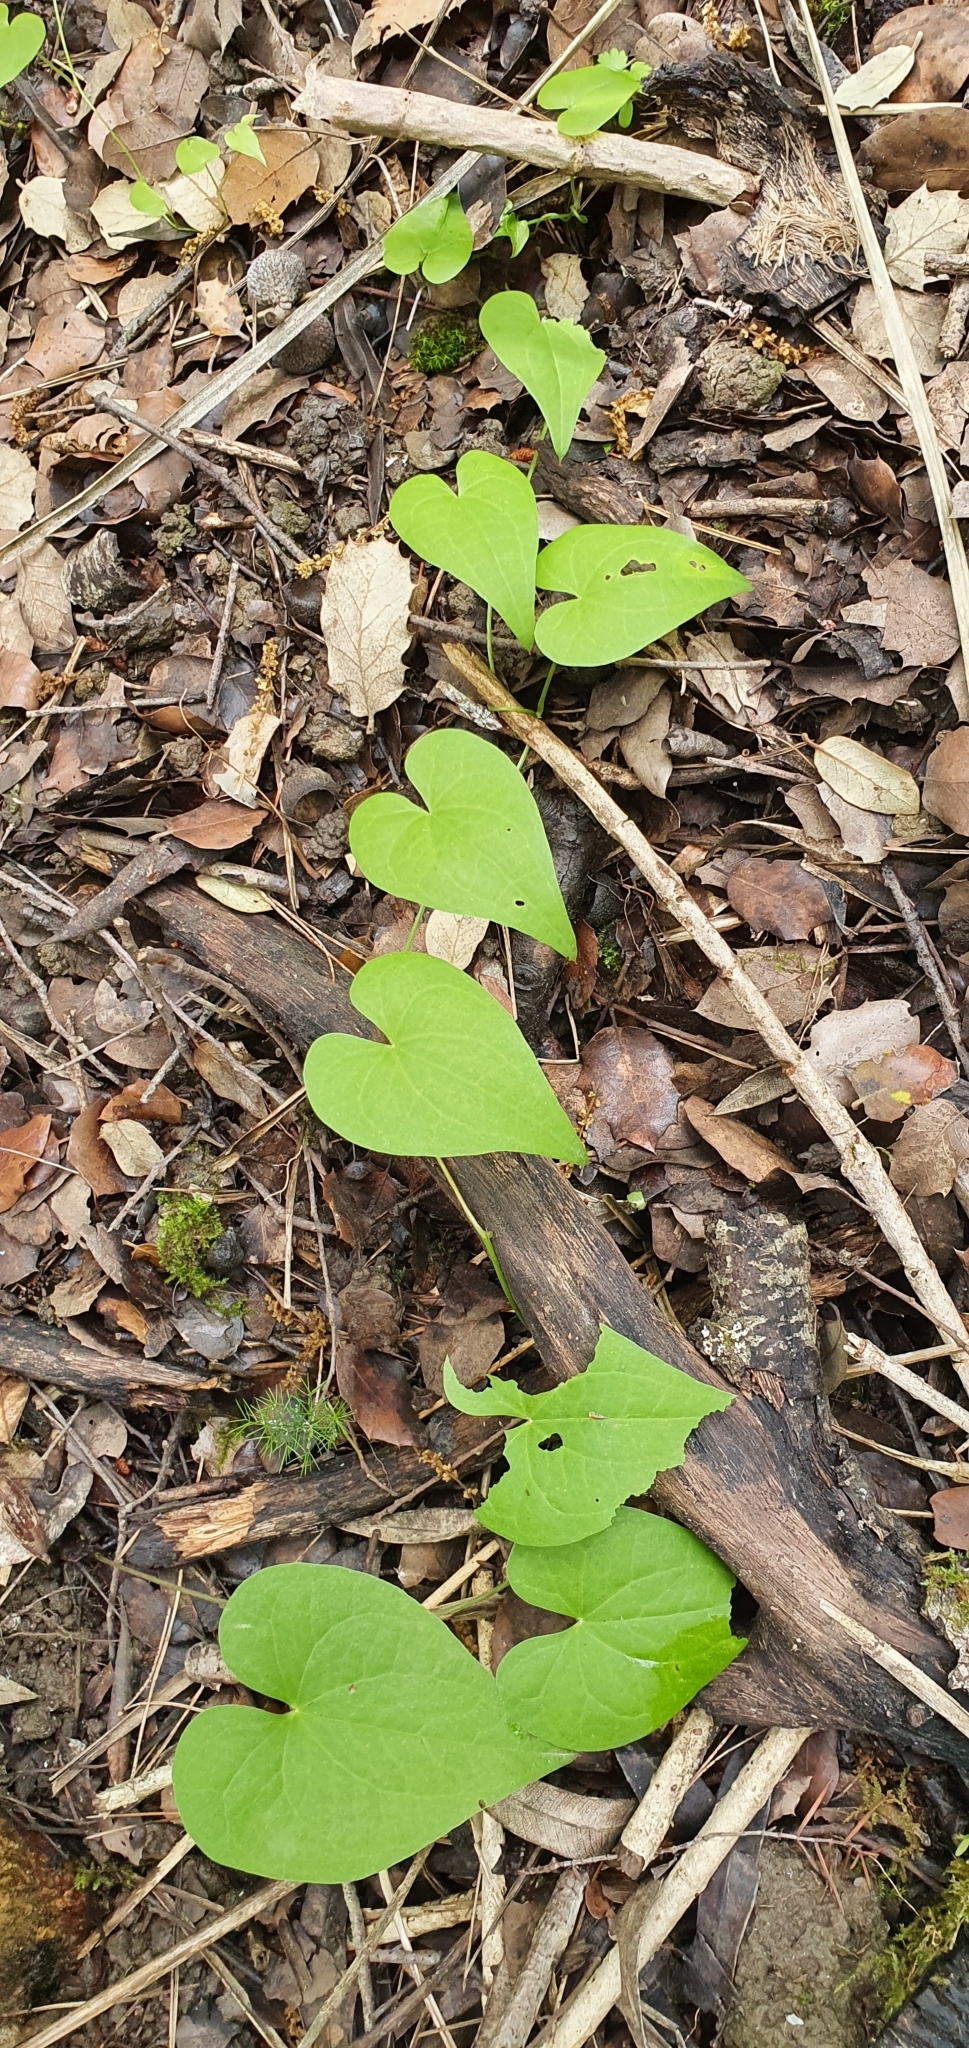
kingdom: Plantae
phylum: Tracheophyta
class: Liliopsida
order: Dioscoreales
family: Dioscoreaceae
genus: Dioscorea
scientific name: Dioscorea communis
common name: Black-bindweed
